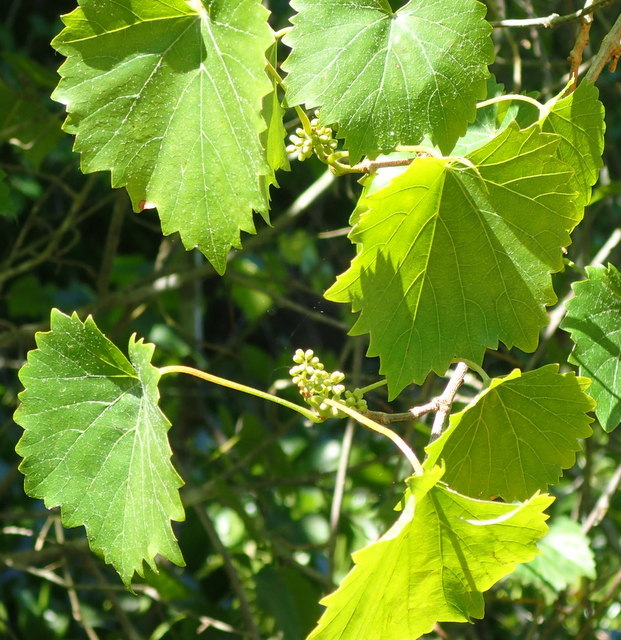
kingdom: Plantae
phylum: Tracheophyta
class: Magnoliopsida
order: Vitales
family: Vitaceae
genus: Vitis
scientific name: Vitis rotundifolia
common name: Muscadine grape
